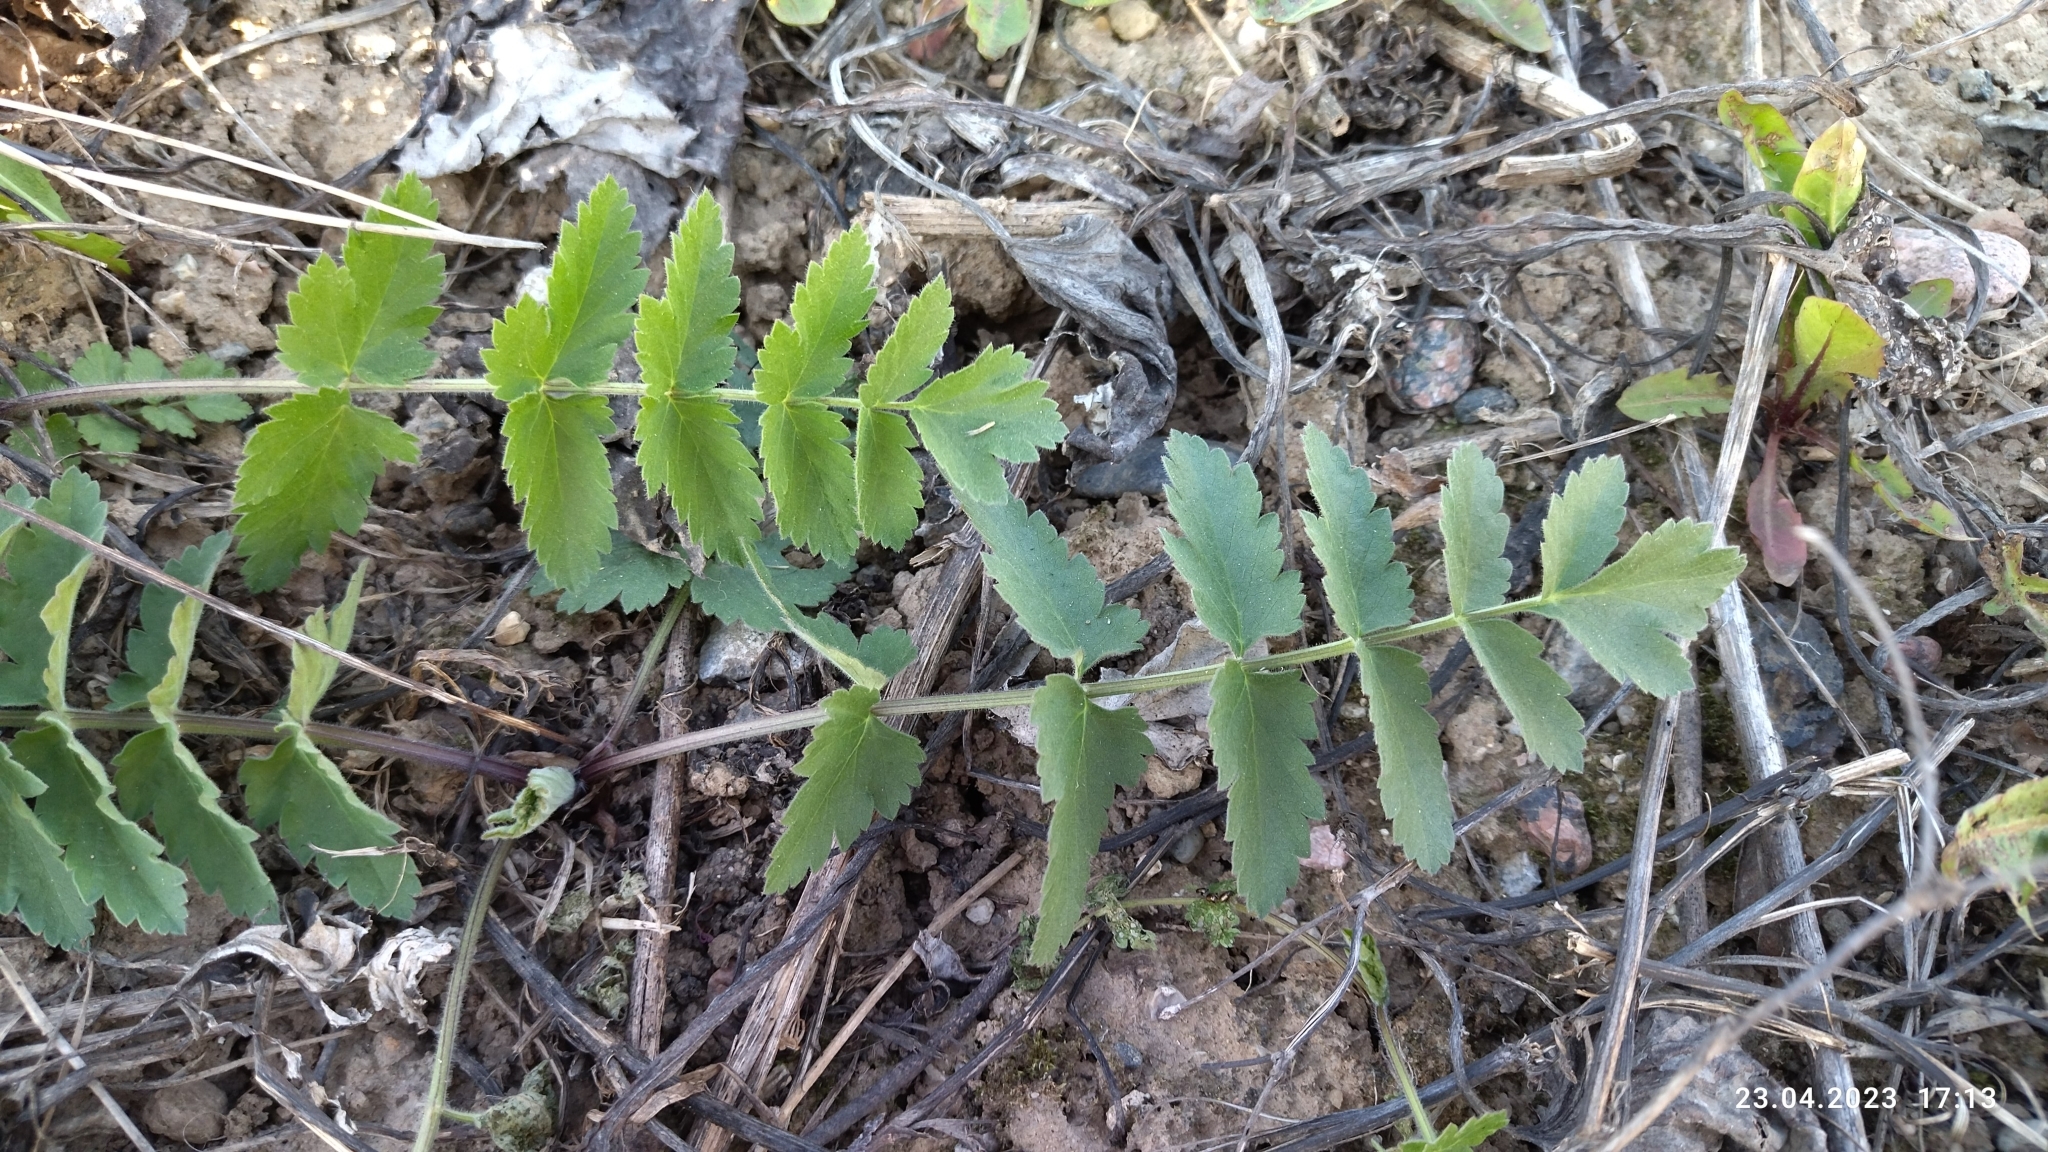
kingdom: Plantae
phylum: Tracheophyta
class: Magnoliopsida
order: Apiales
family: Apiaceae
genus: Pastinaca
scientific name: Pastinaca sativa
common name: Wild parsnip
